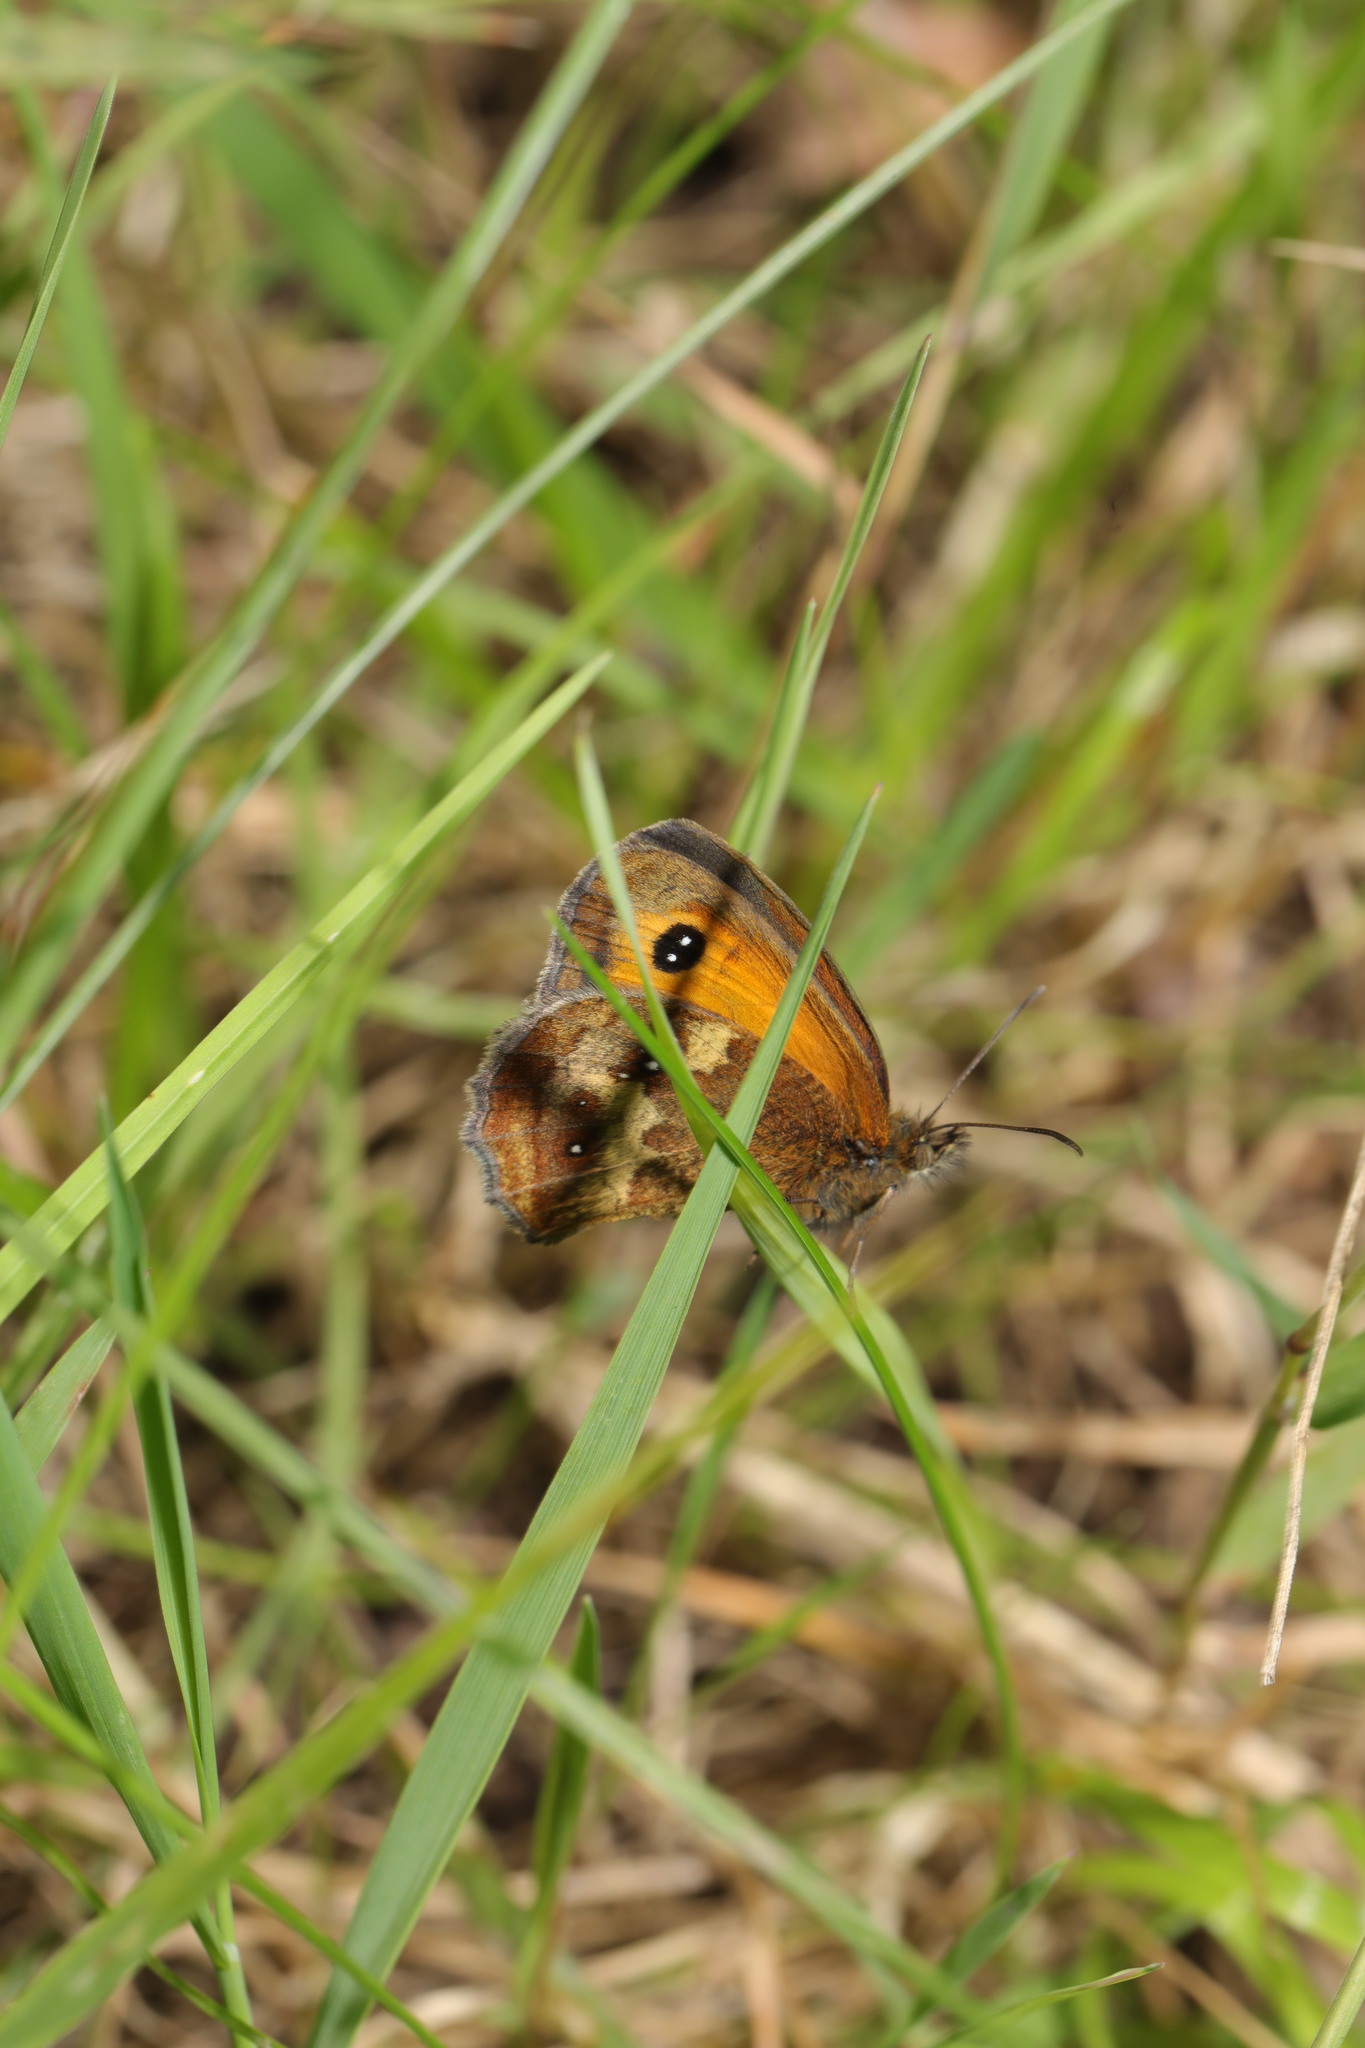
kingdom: Animalia
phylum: Arthropoda
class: Insecta
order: Lepidoptera
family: Nymphalidae
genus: Pyronia
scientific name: Pyronia tithonus
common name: Gatekeeper
